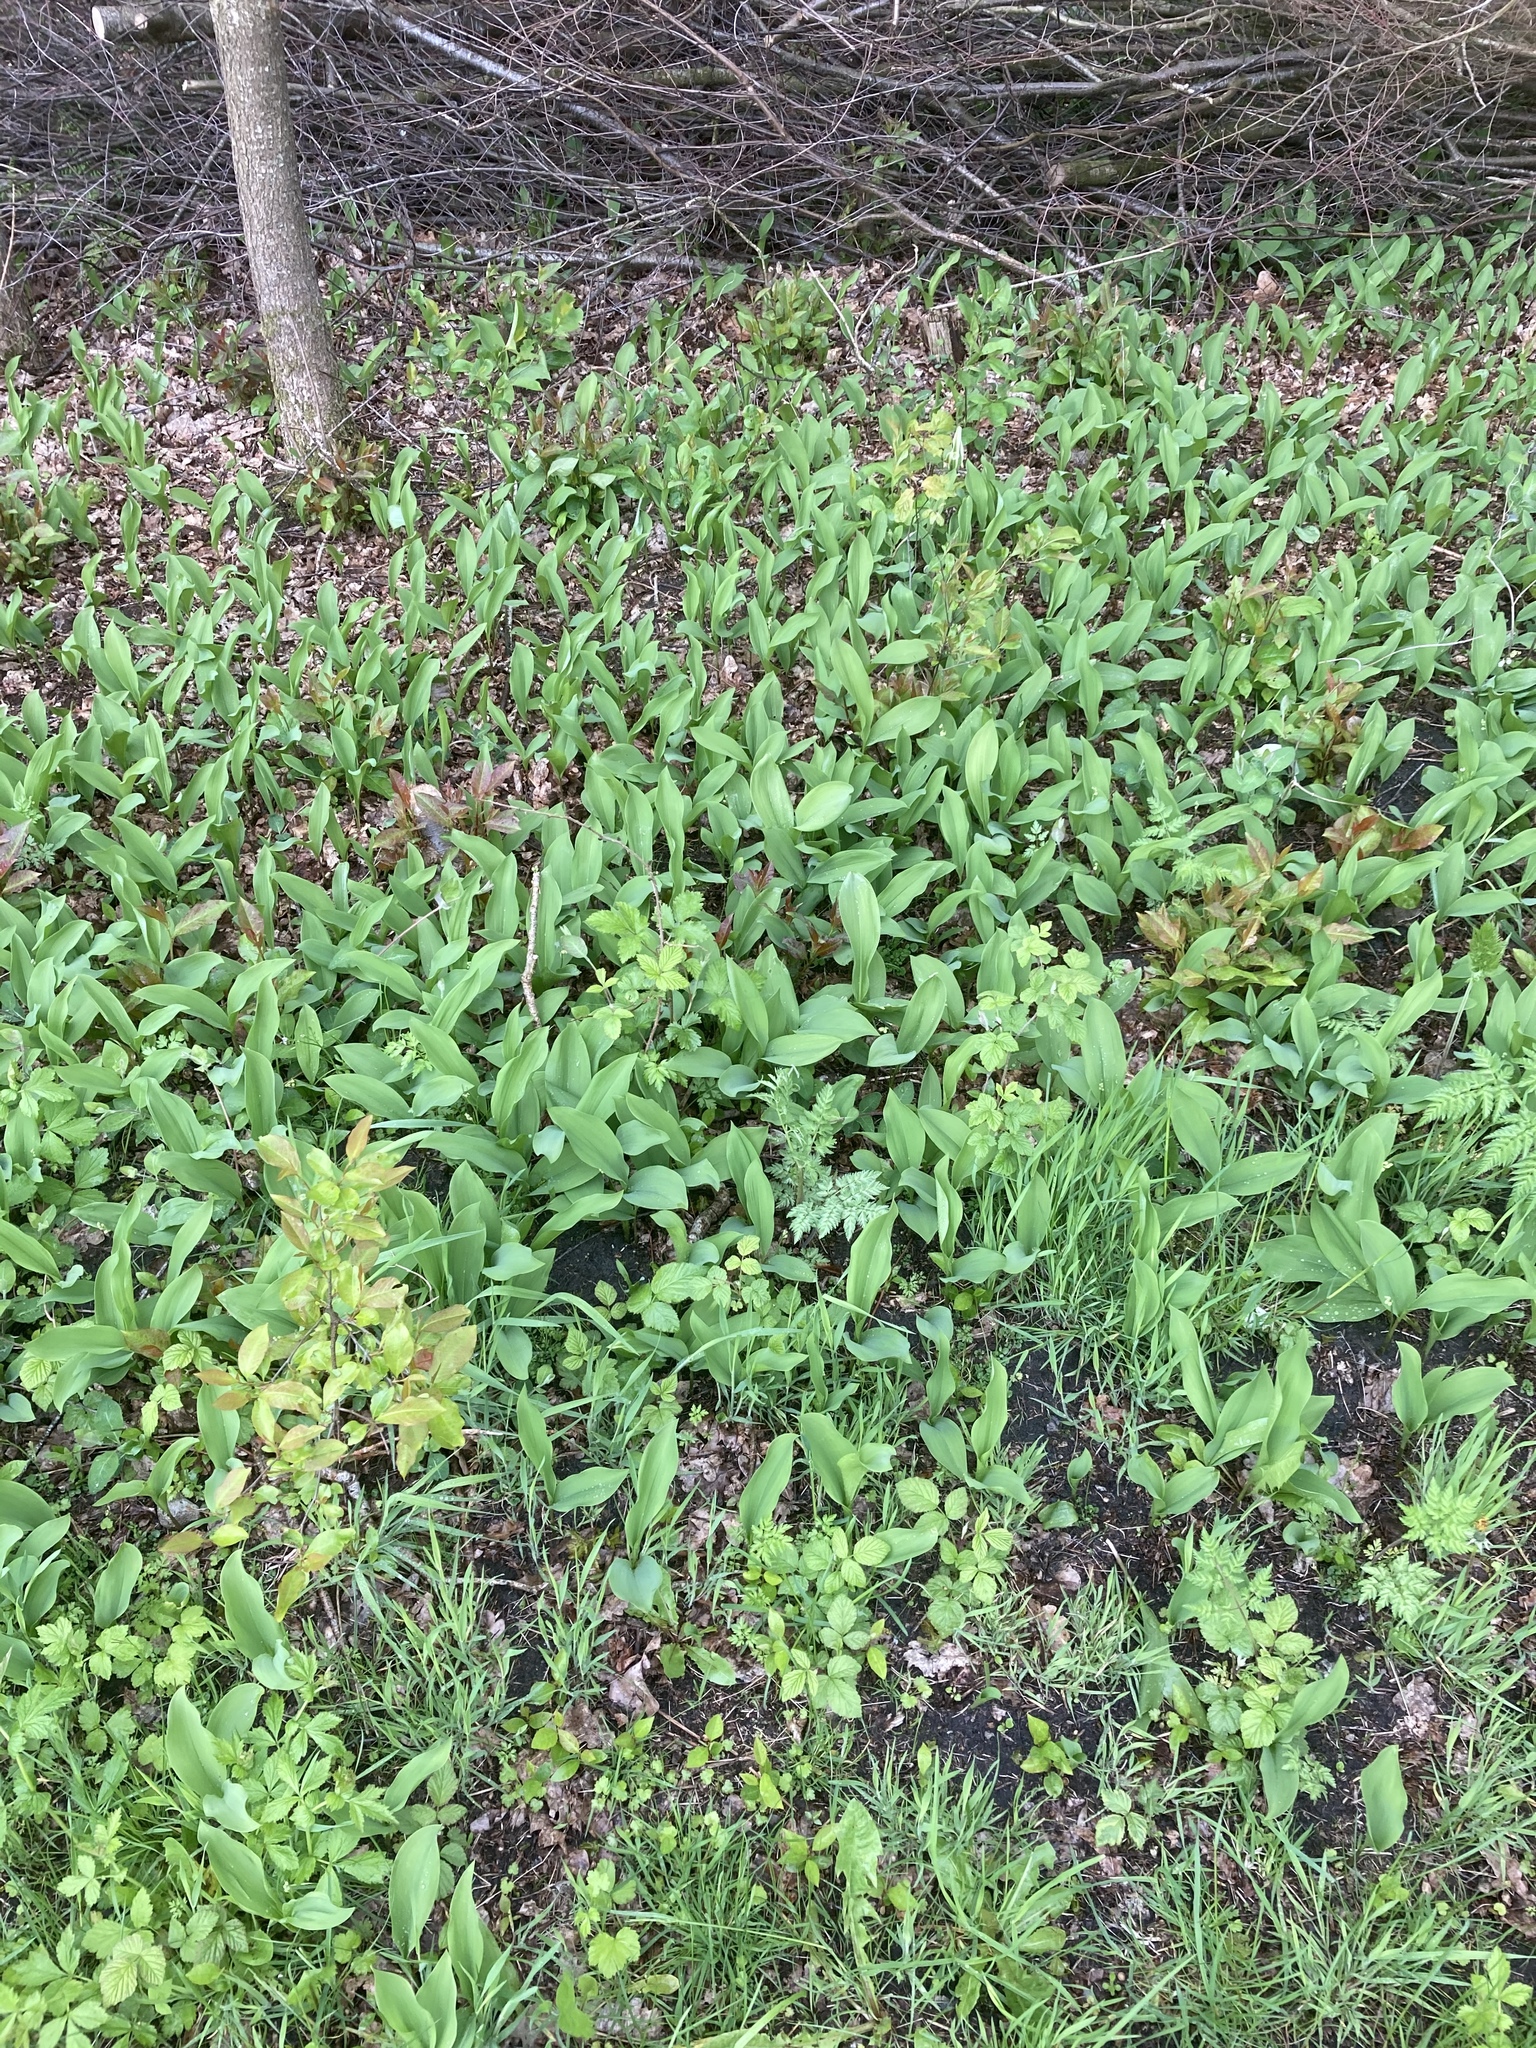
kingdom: Plantae
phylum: Tracheophyta
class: Liliopsida
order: Asparagales
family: Asparagaceae
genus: Convallaria
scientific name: Convallaria majalis
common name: Lily-of-the-valley
